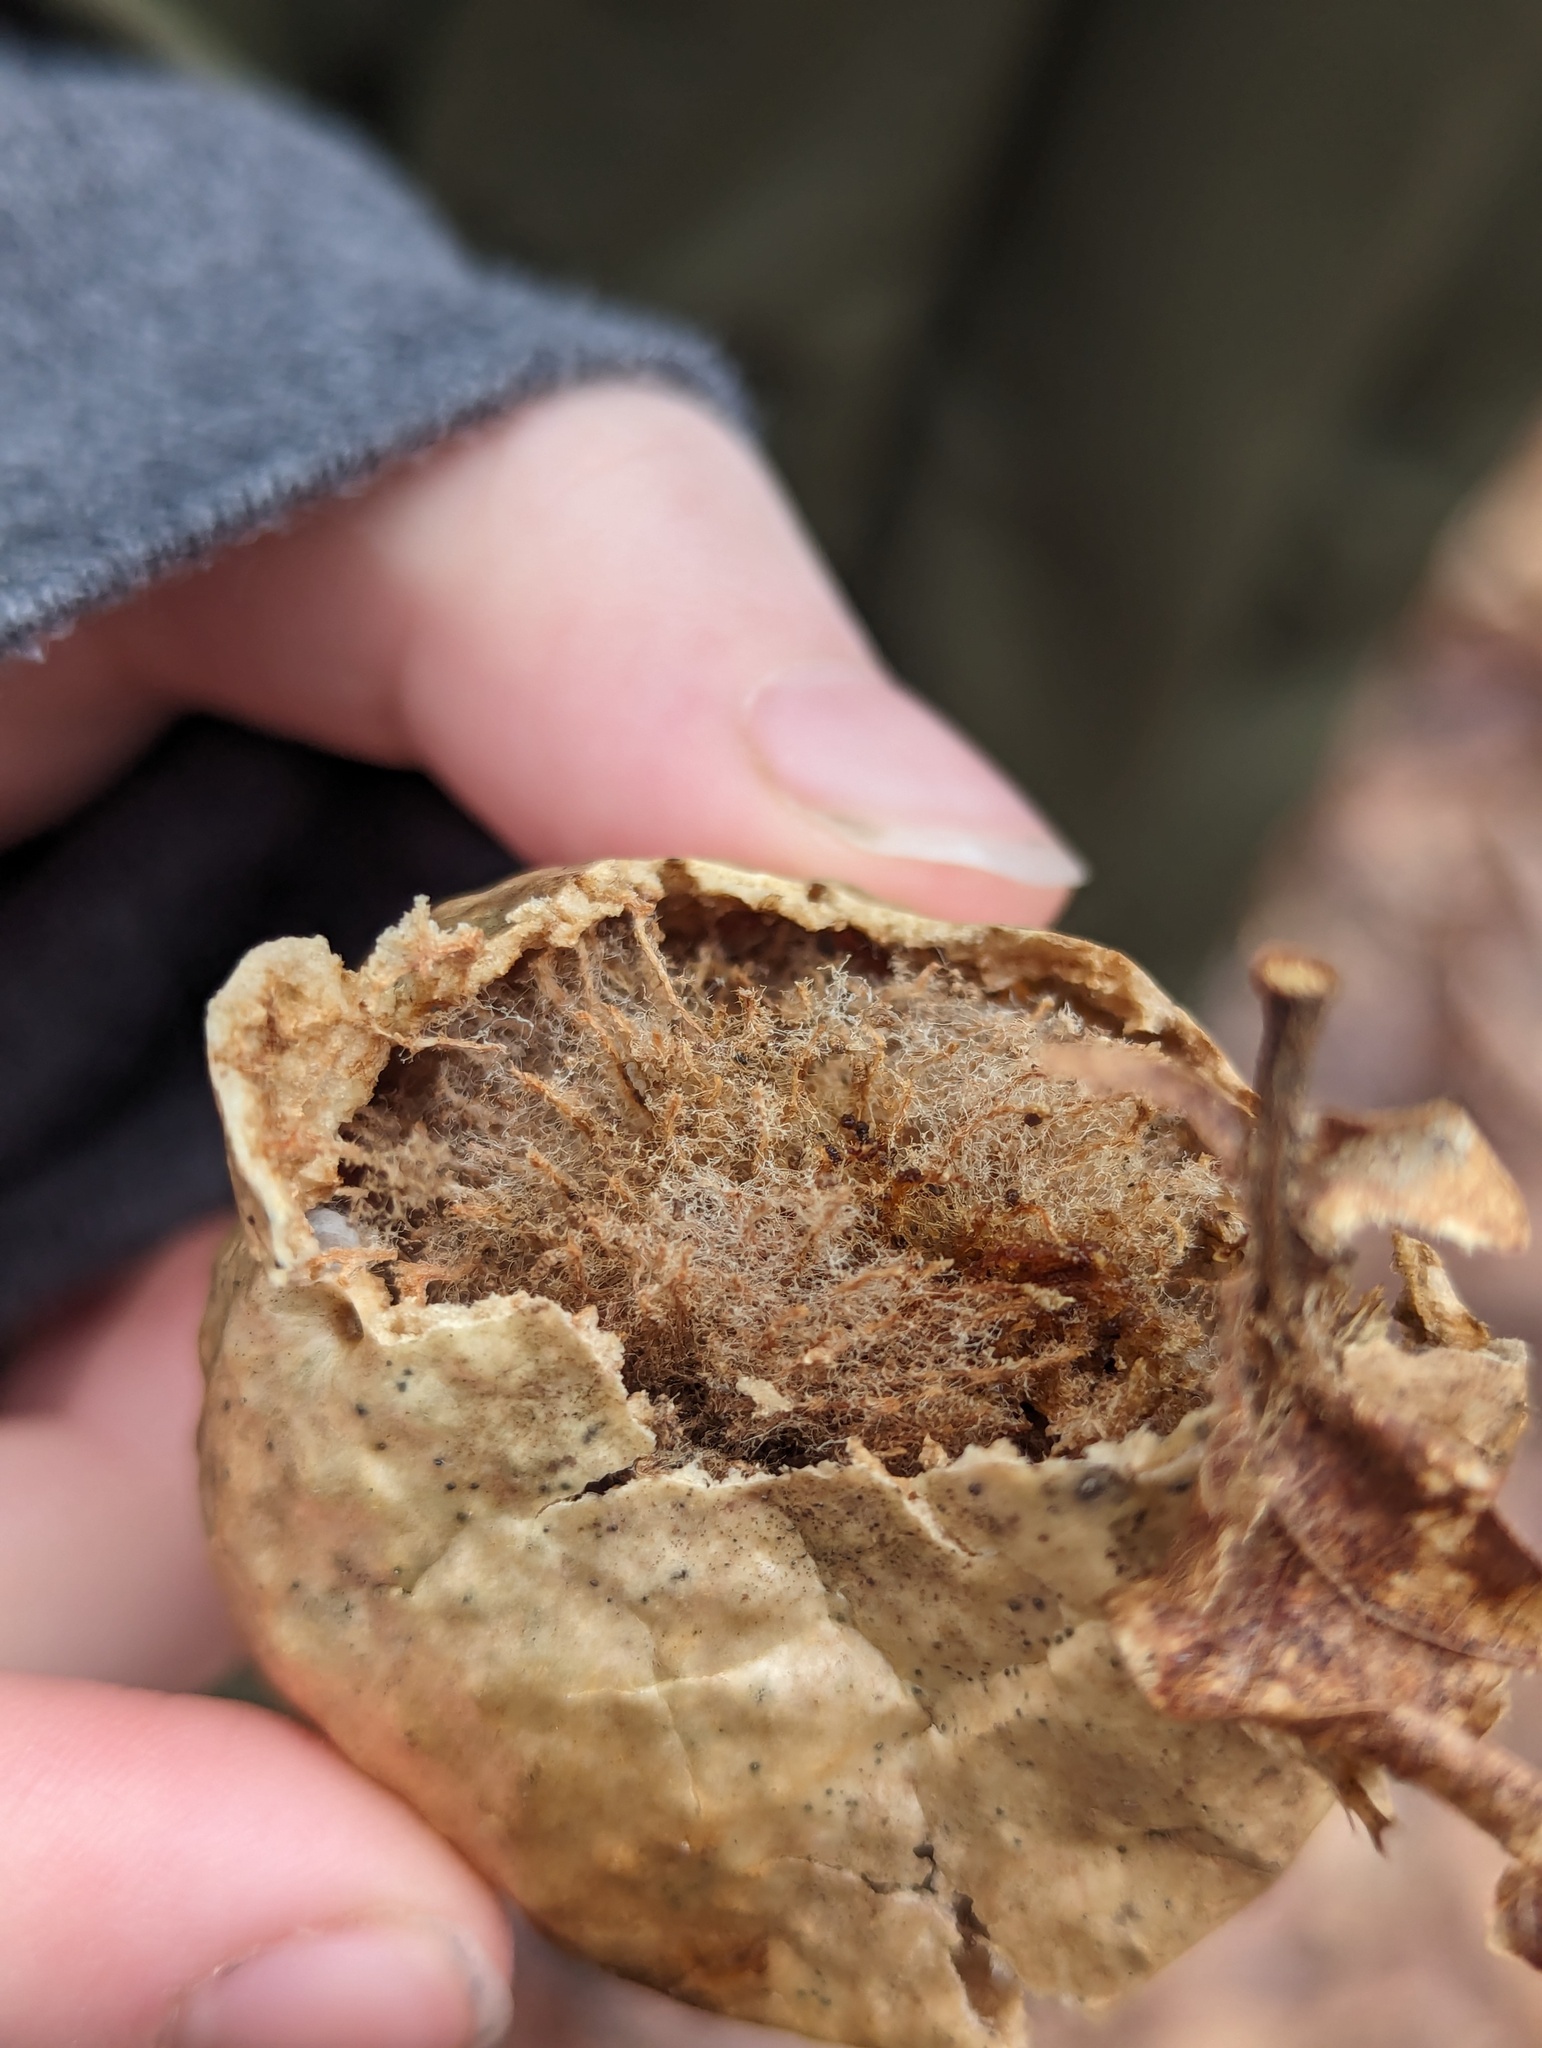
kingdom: Animalia
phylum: Arthropoda
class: Insecta
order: Hymenoptera
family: Cynipidae
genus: Amphibolips
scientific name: Amphibolips
